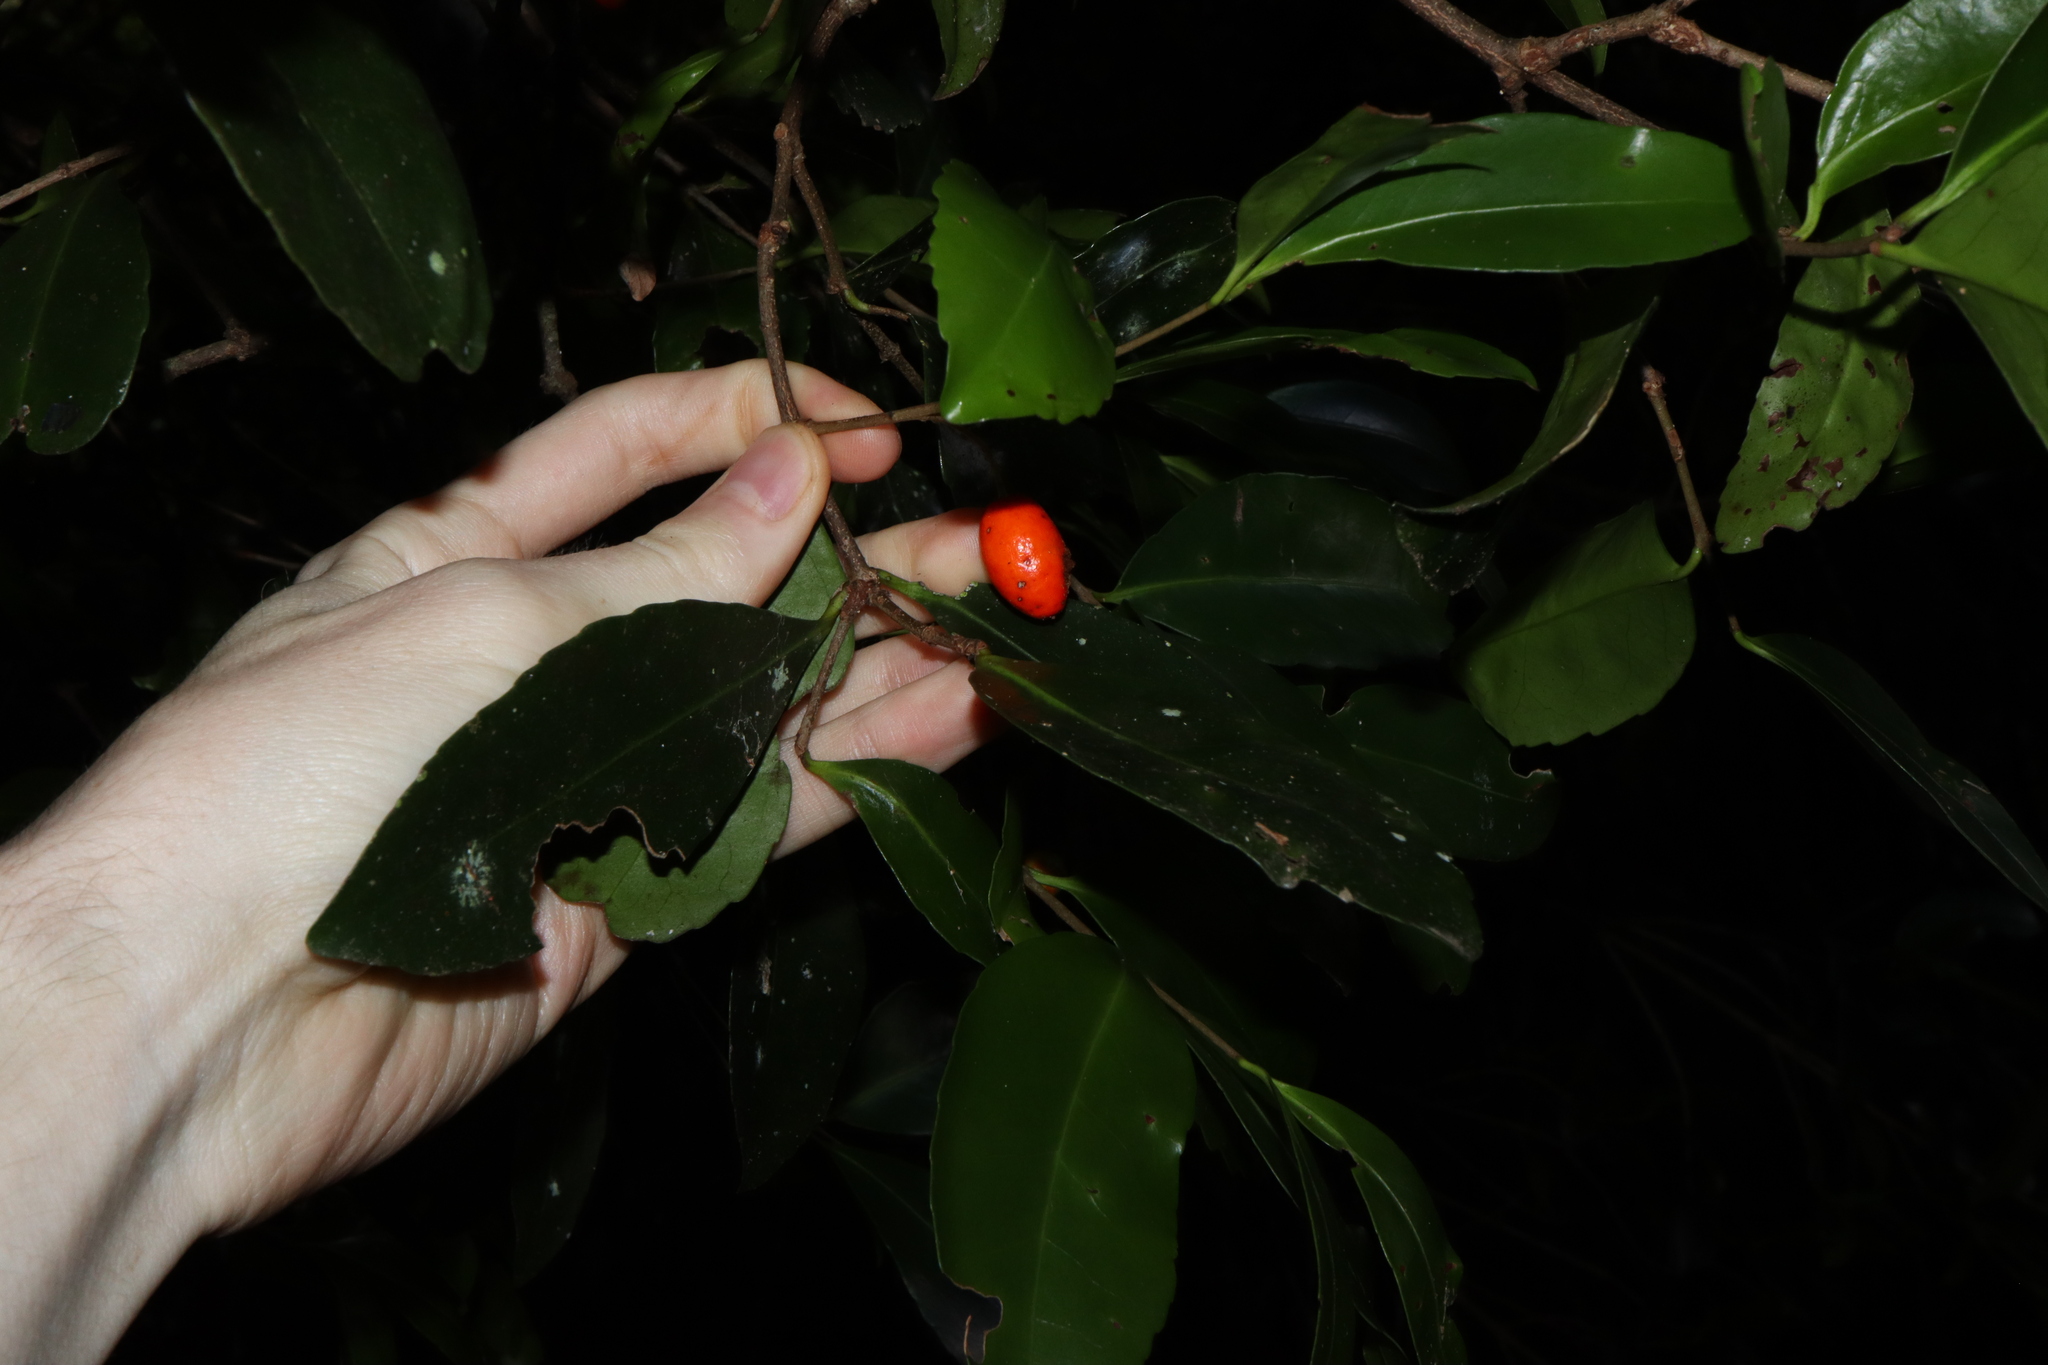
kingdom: Plantae
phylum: Tracheophyta
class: Magnoliopsida
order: Celastrales
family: Celastraceae
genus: Elaeodendron
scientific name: Elaeodendron australe
